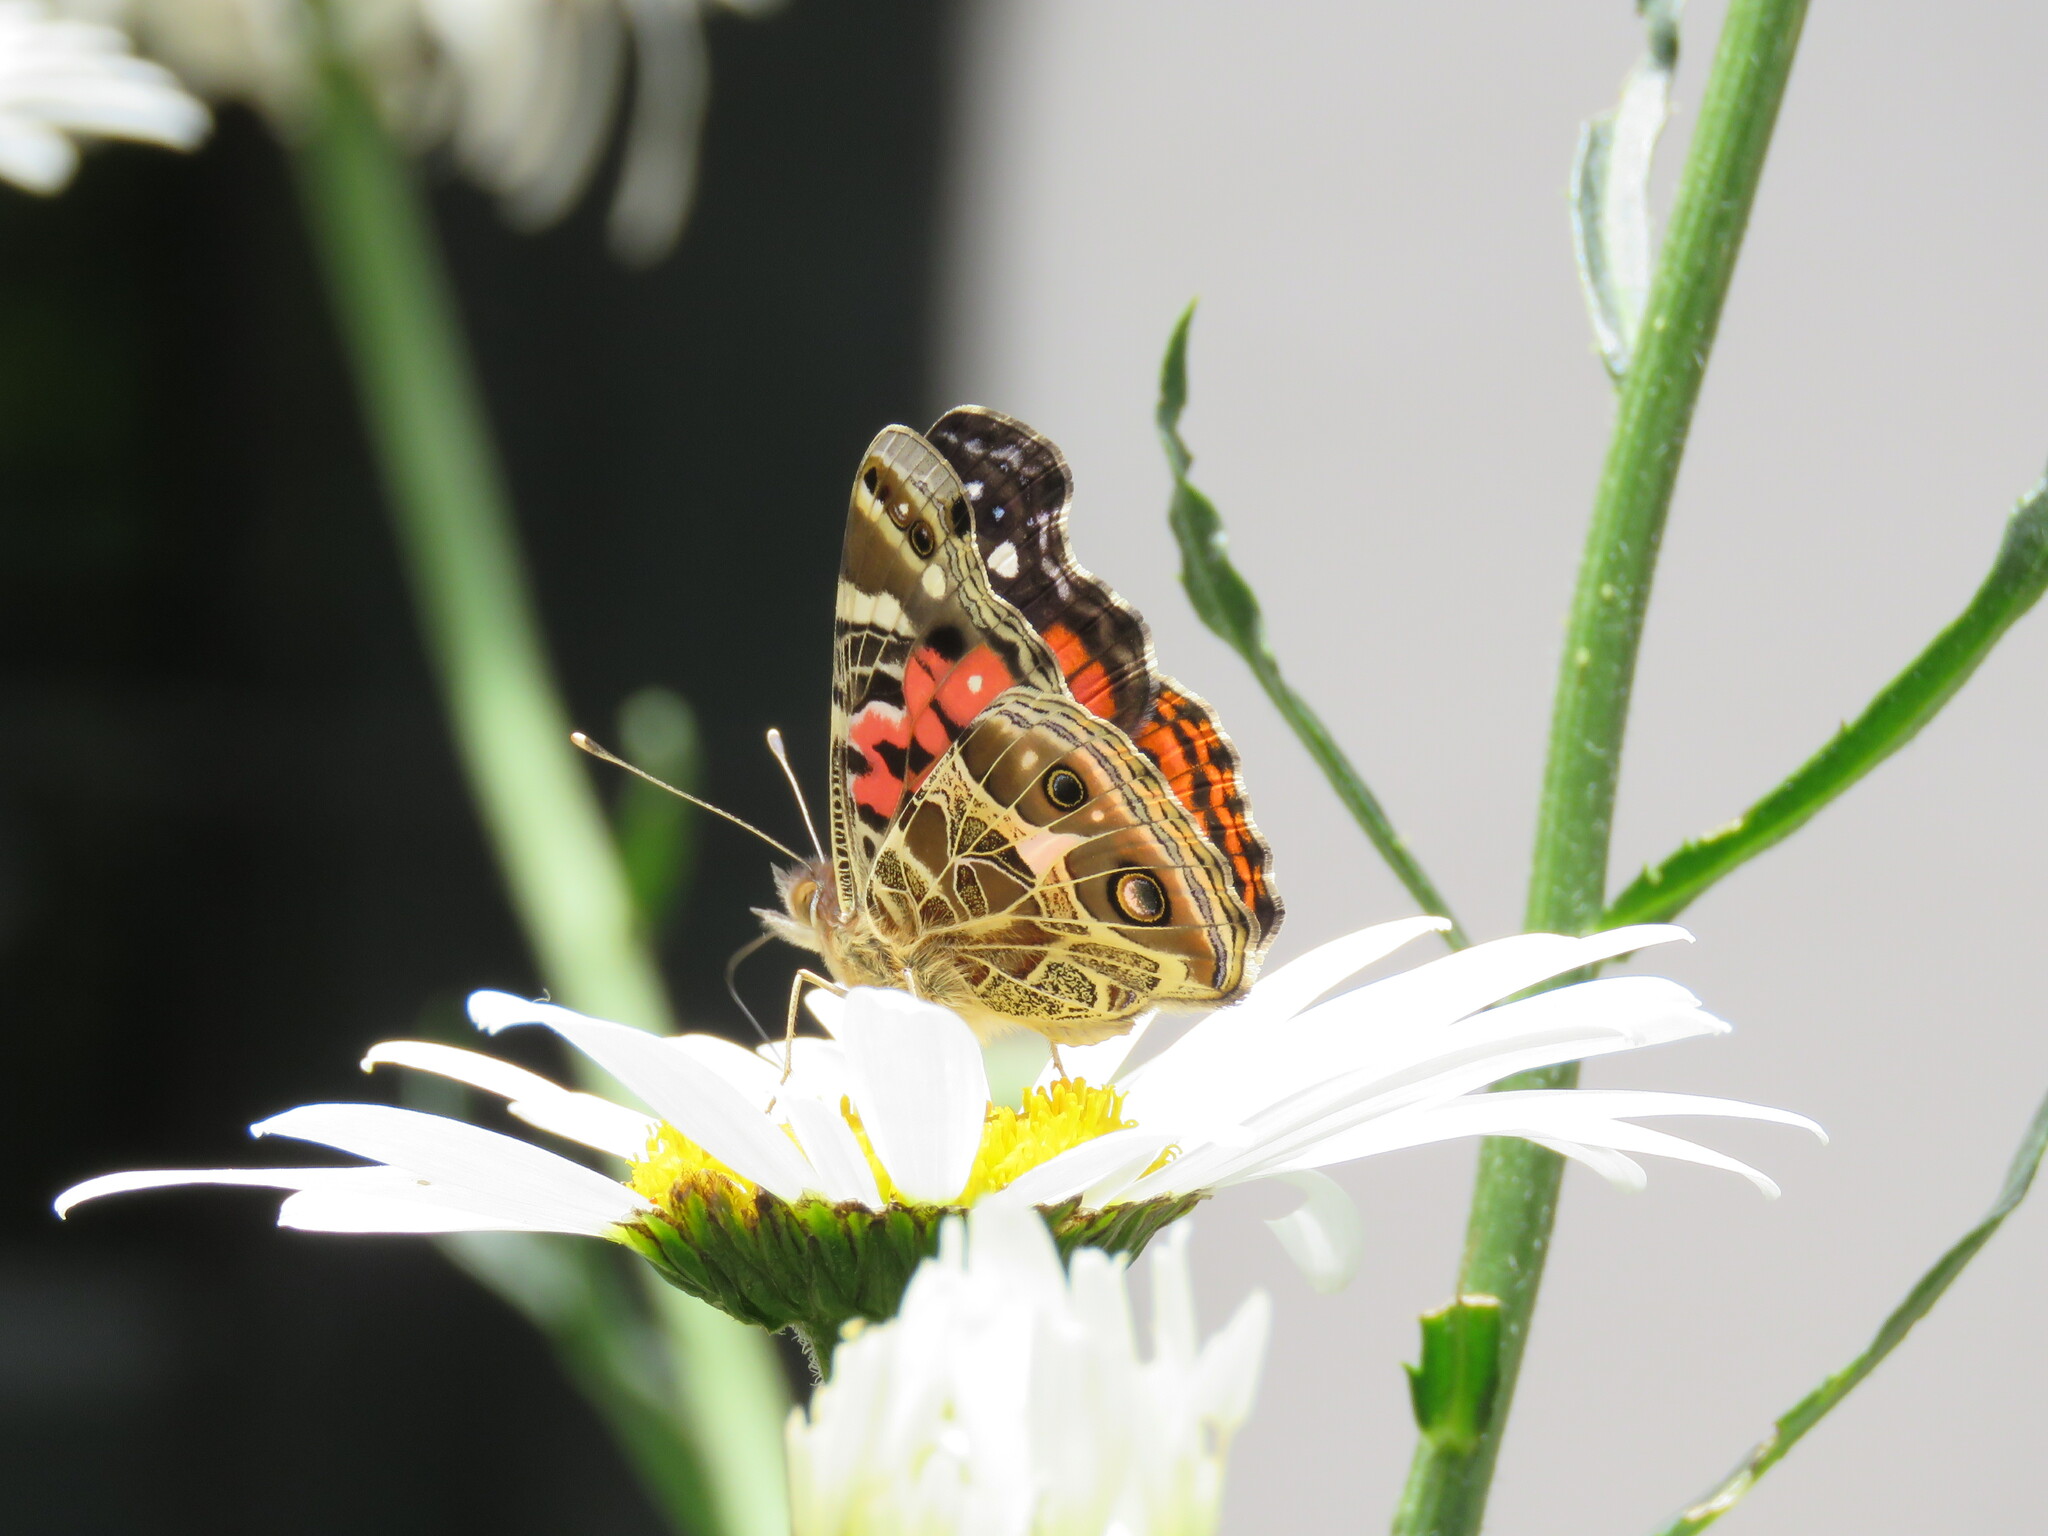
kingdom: Animalia
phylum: Arthropoda
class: Insecta
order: Lepidoptera
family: Nymphalidae
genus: Vanessa
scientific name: Vanessa braziliensis
